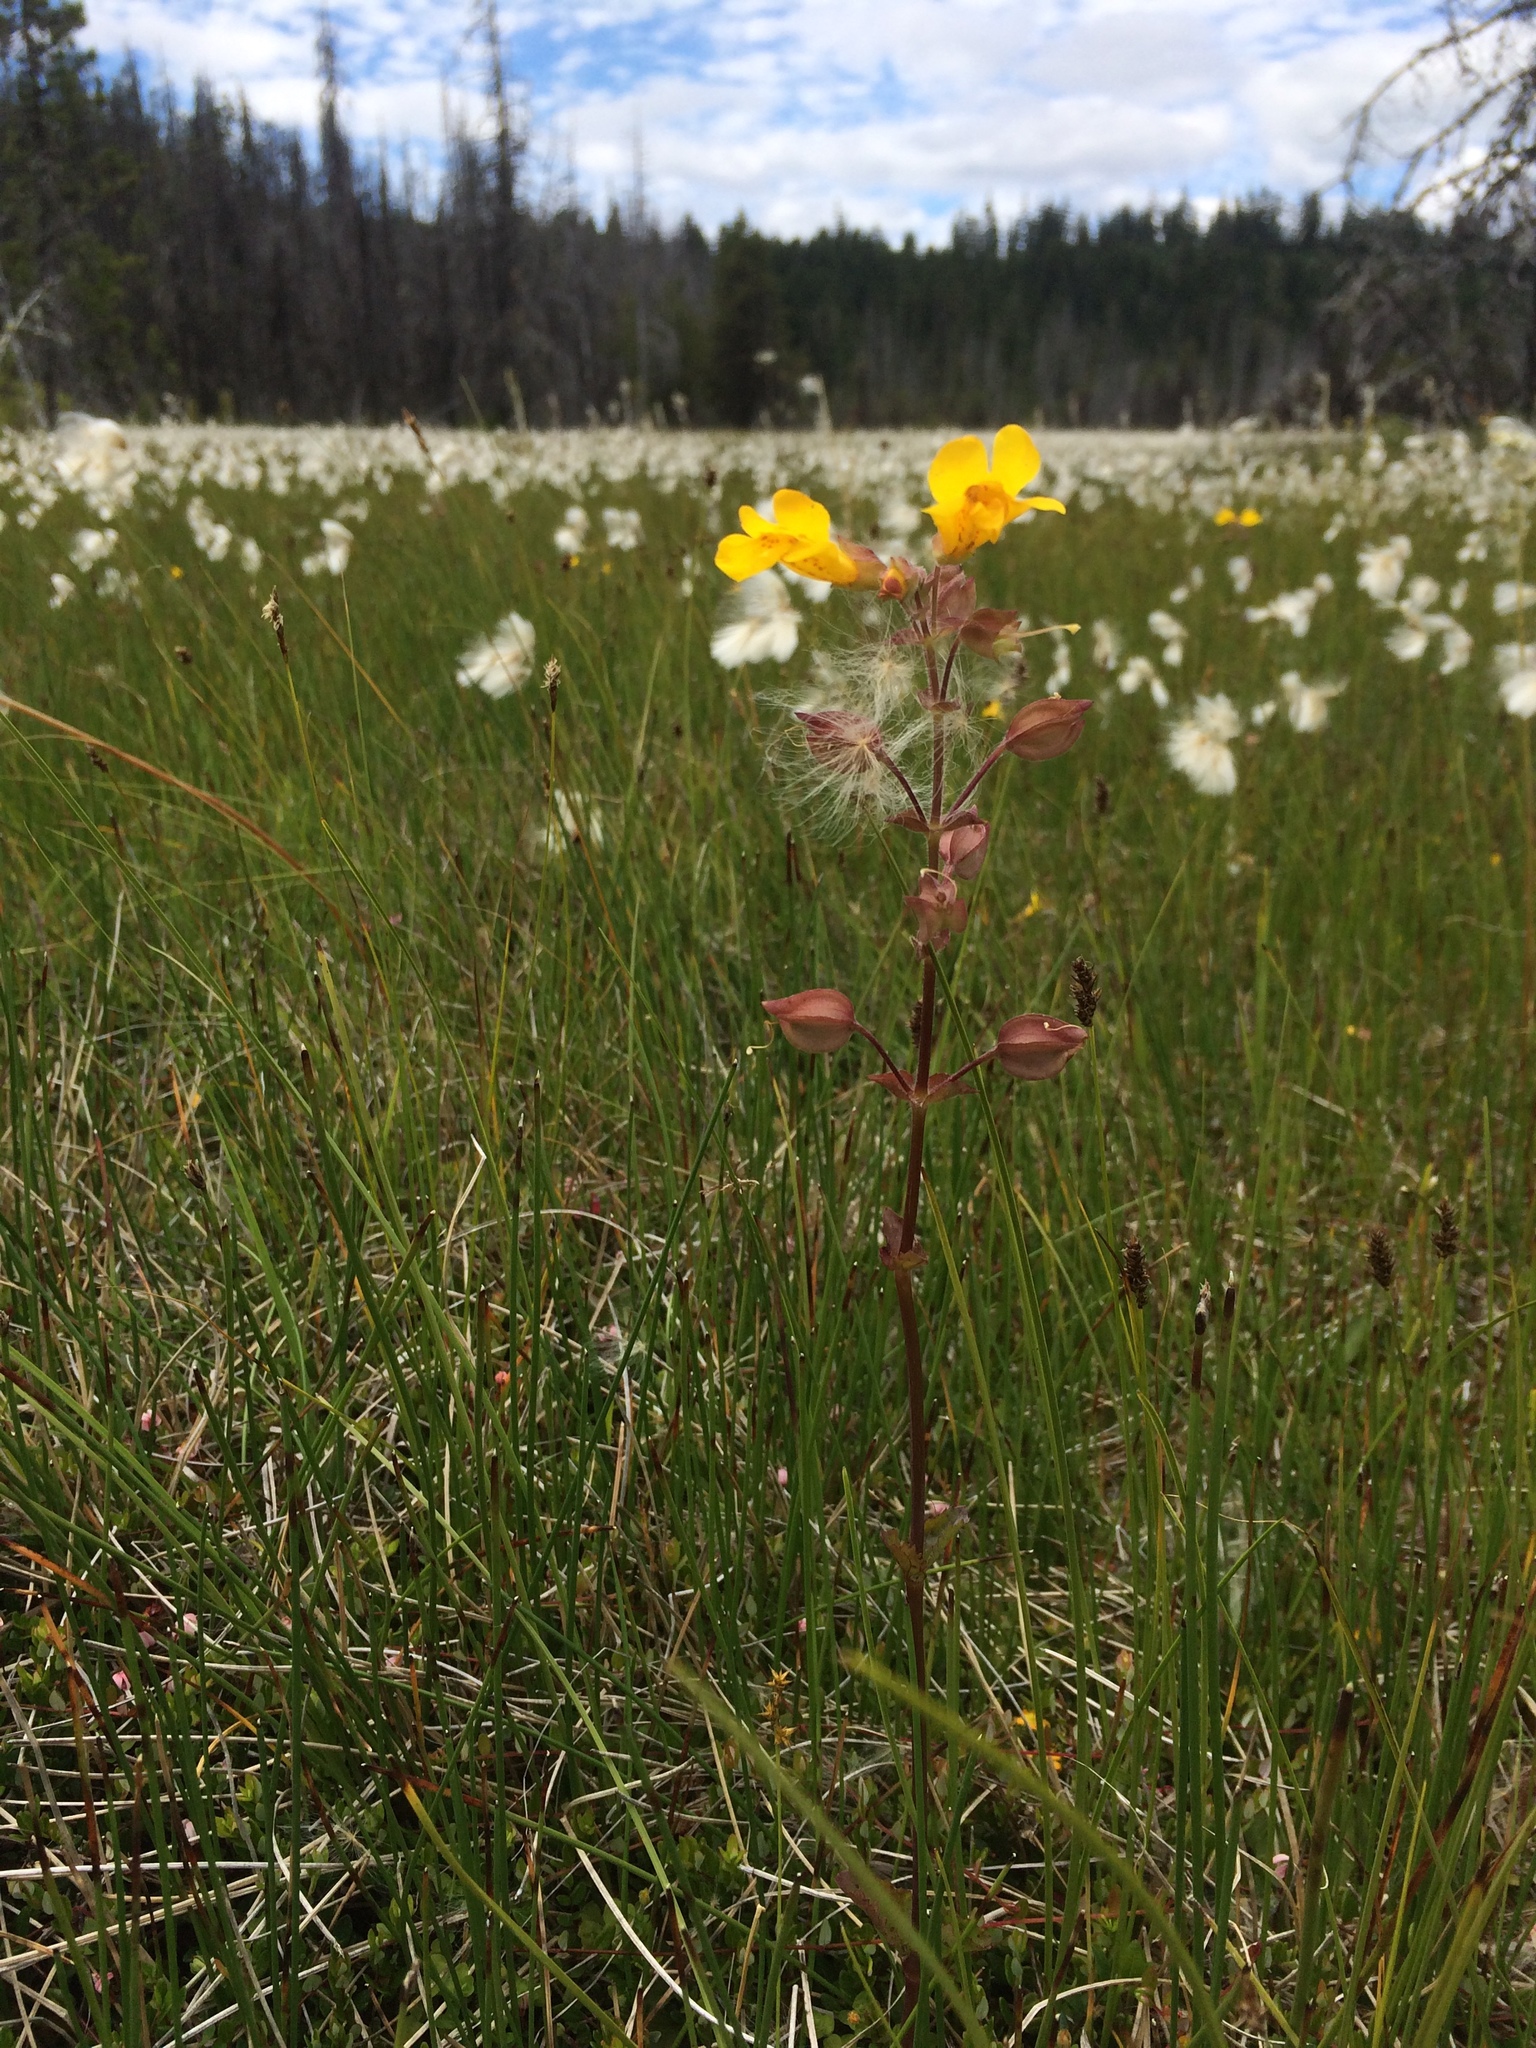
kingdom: Plantae
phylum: Tracheophyta
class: Magnoliopsida
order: Lamiales
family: Phrymaceae
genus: Erythranthe
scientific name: Erythranthe guttata
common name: Monkeyflower
